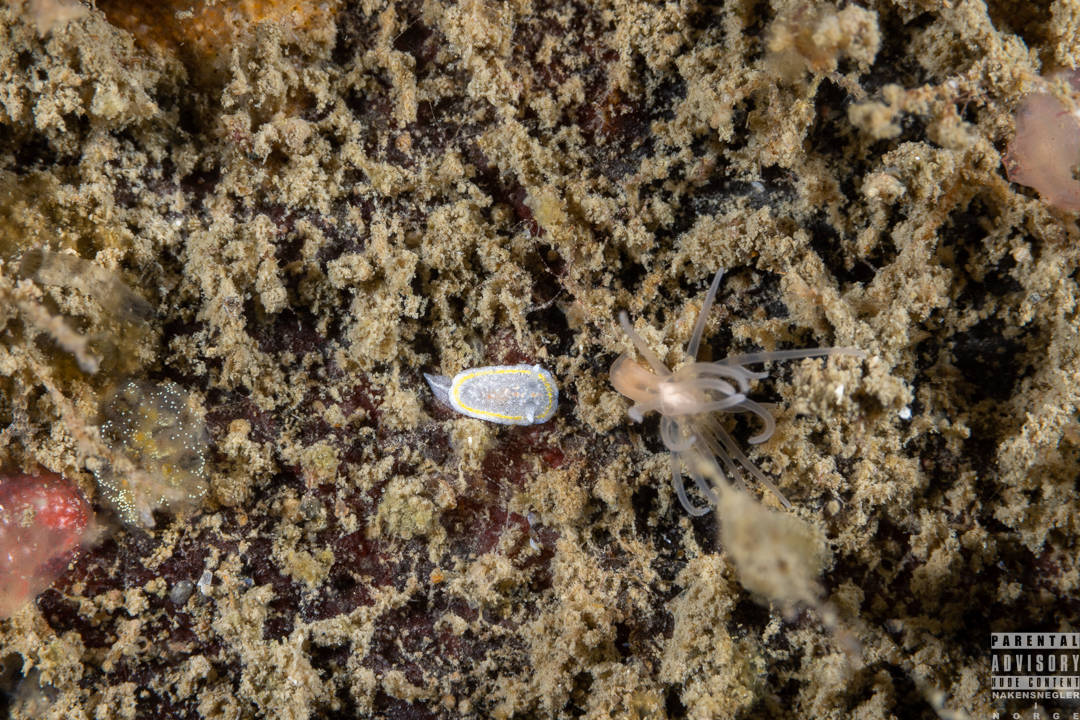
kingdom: Animalia
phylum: Mollusca
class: Gastropoda
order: Nudibranchia
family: Calycidorididae
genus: Diaphorodoris
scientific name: Diaphorodoris luteocincta
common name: Fried egg nudibranch
